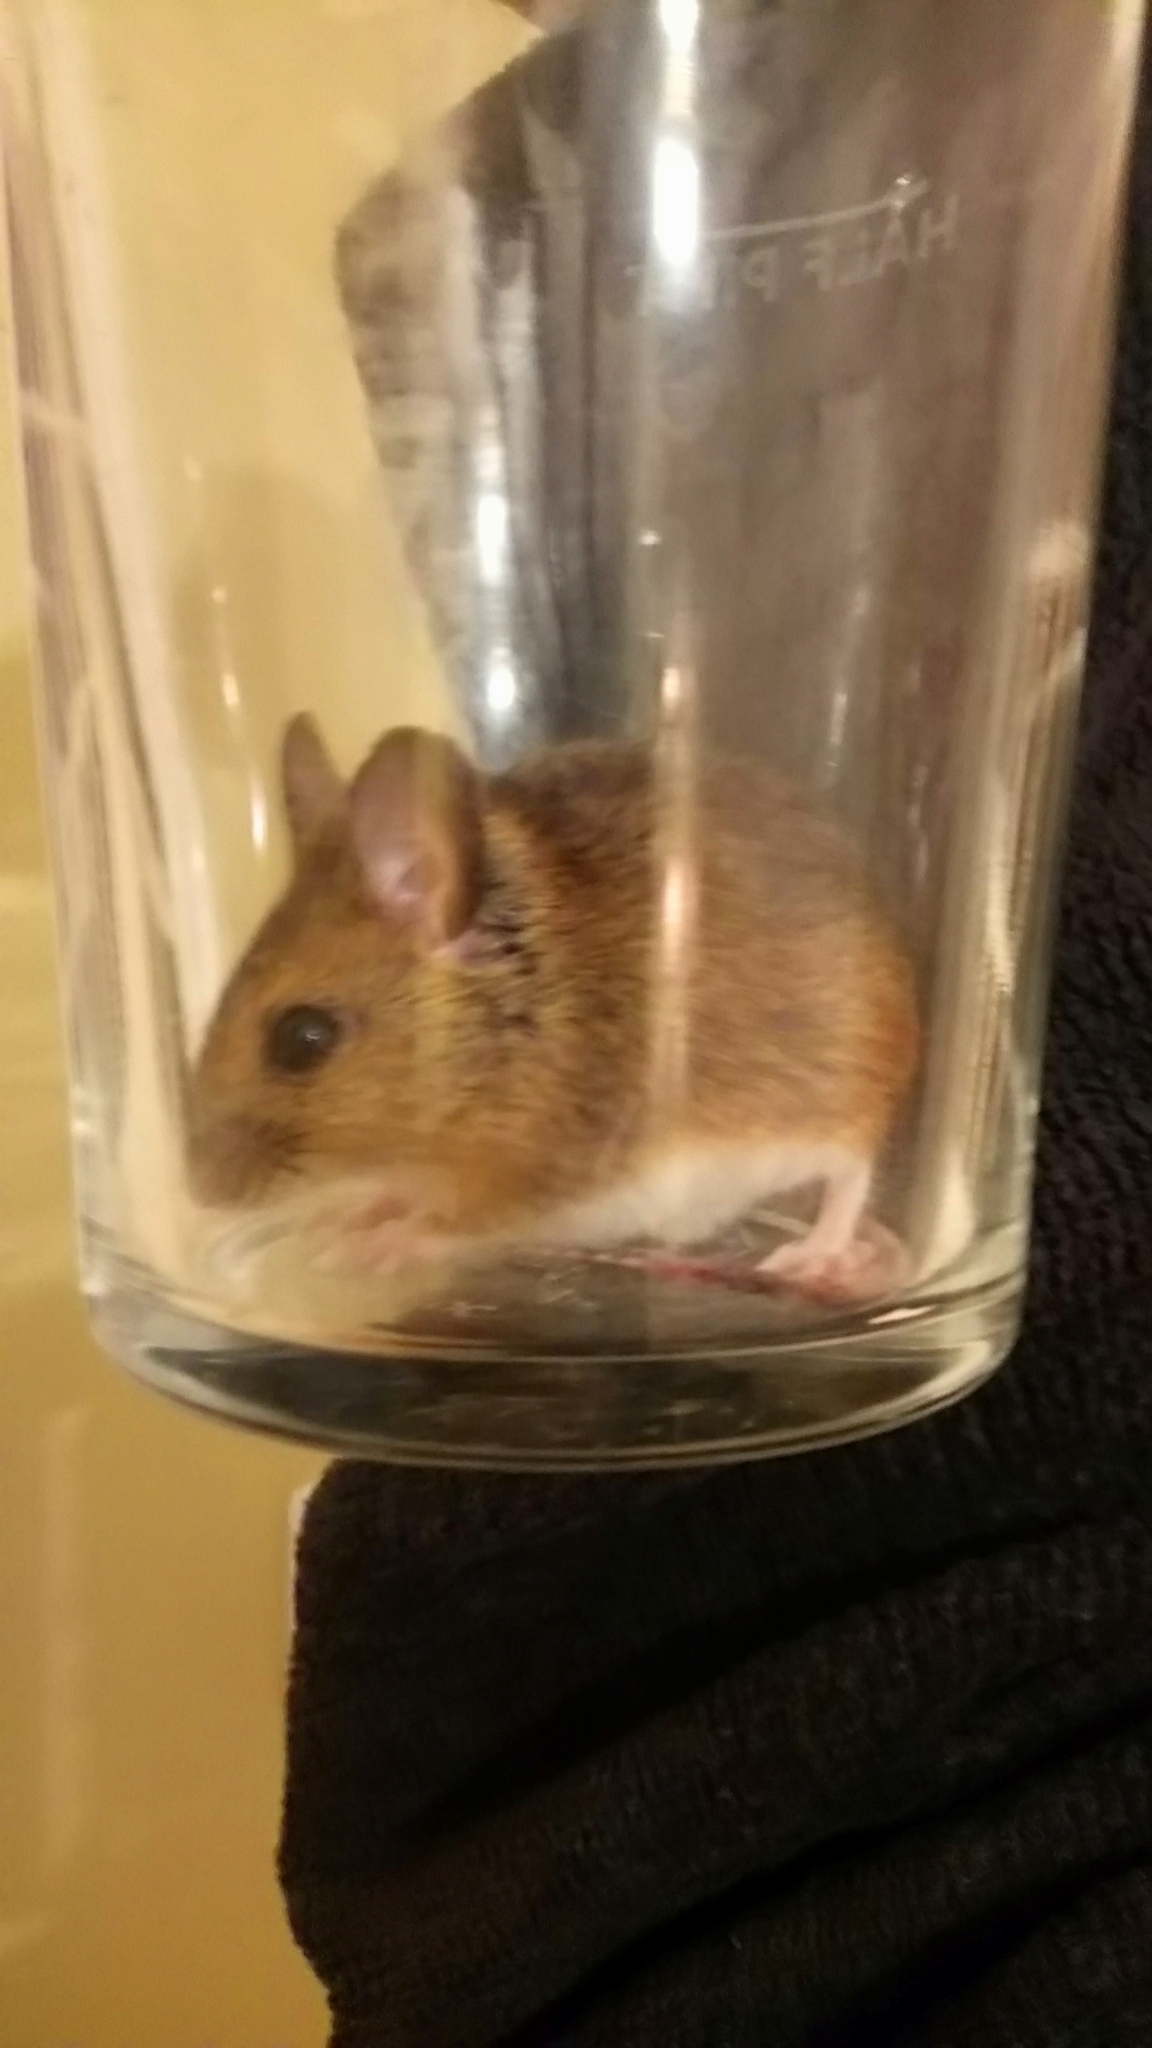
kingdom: Animalia
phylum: Chordata
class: Mammalia
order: Rodentia
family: Muridae
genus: Apodemus
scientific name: Apodemus sylvaticus
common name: Wood mouse
